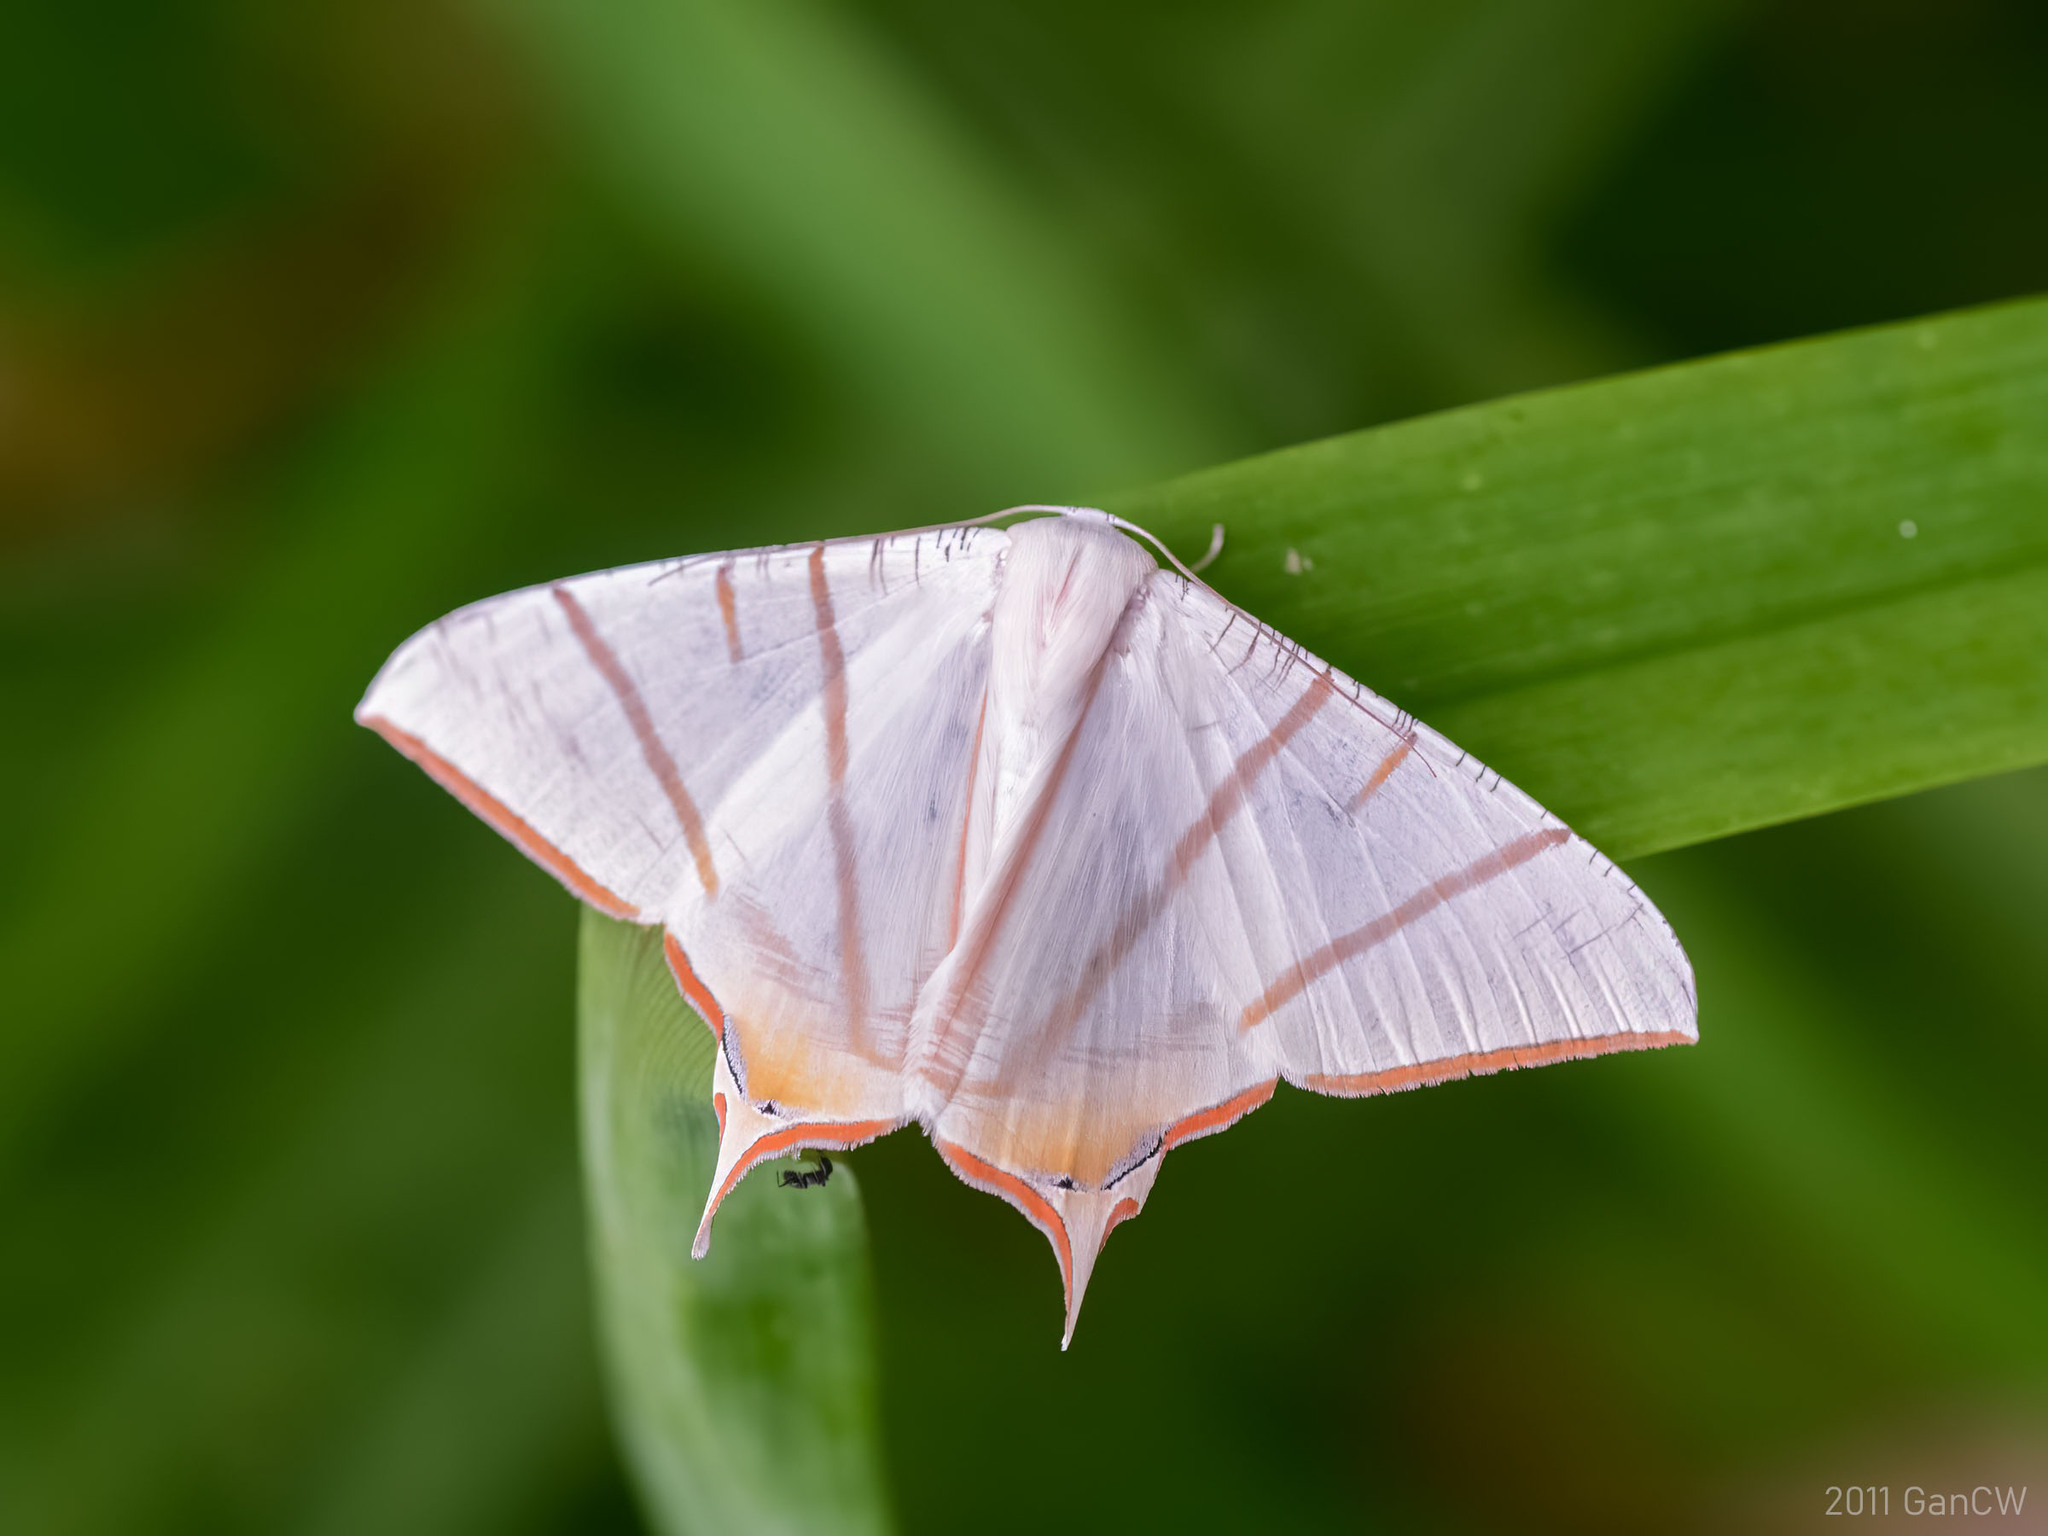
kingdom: Animalia
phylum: Arthropoda
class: Insecta
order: Lepidoptera
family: Geometridae
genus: Ourapteryx
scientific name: Ourapteryx claretta
